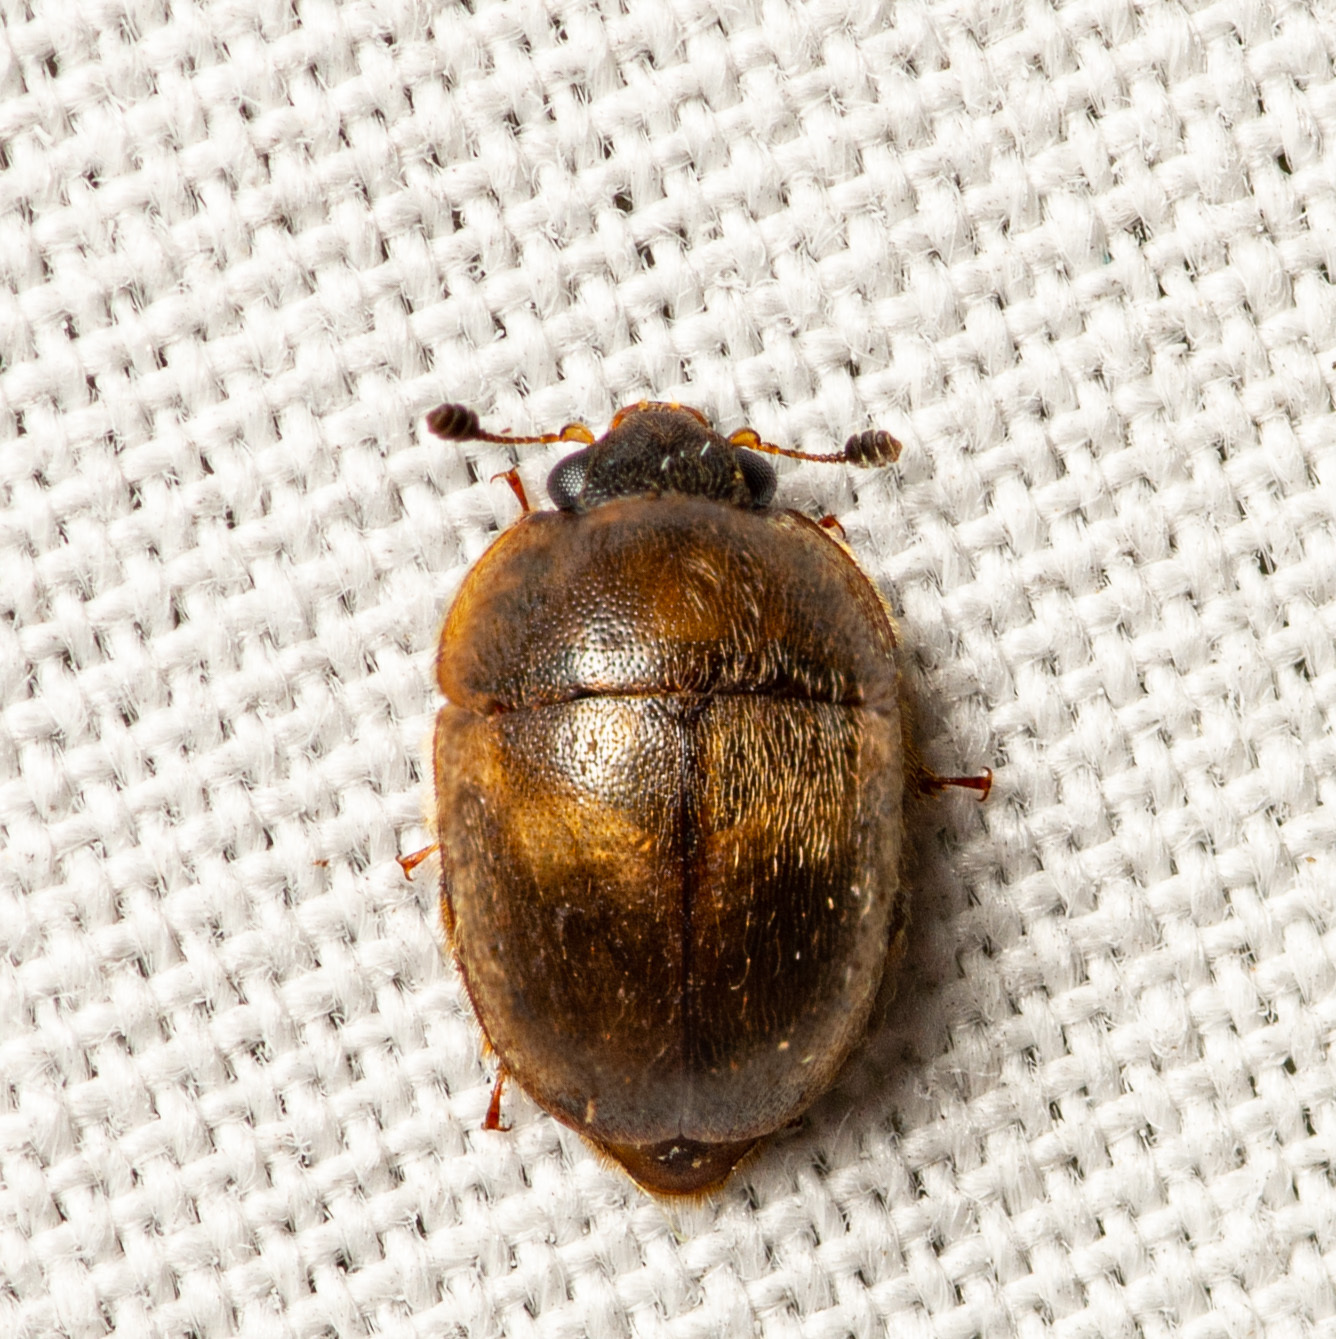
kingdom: Animalia
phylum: Arthropoda
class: Insecta
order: Coleoptera
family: Nitidulidae
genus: Amphicrossus
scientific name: Amphicrossus ciliatus
